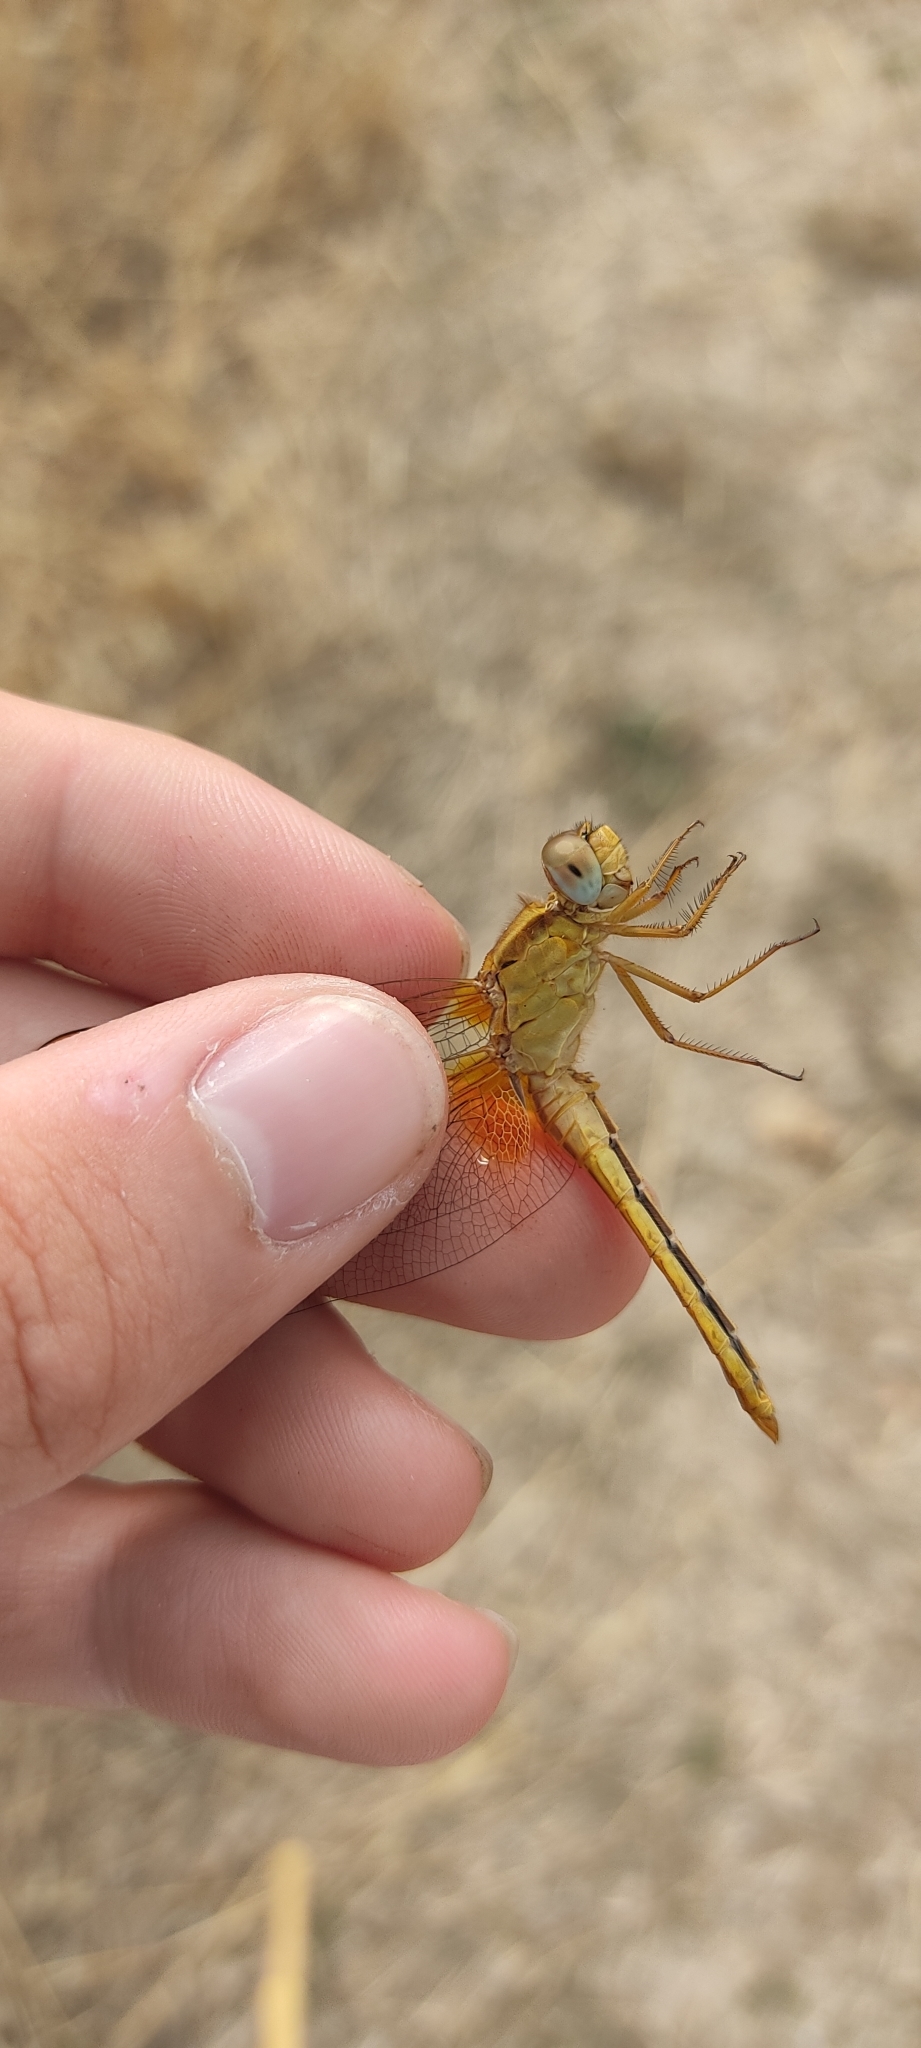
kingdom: Animalia
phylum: Arthropoda
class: Insecta
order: Odonata
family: Libellulidae
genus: Crocothemis
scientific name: Crocothemis erythraea
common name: Scarlet dragonfly
